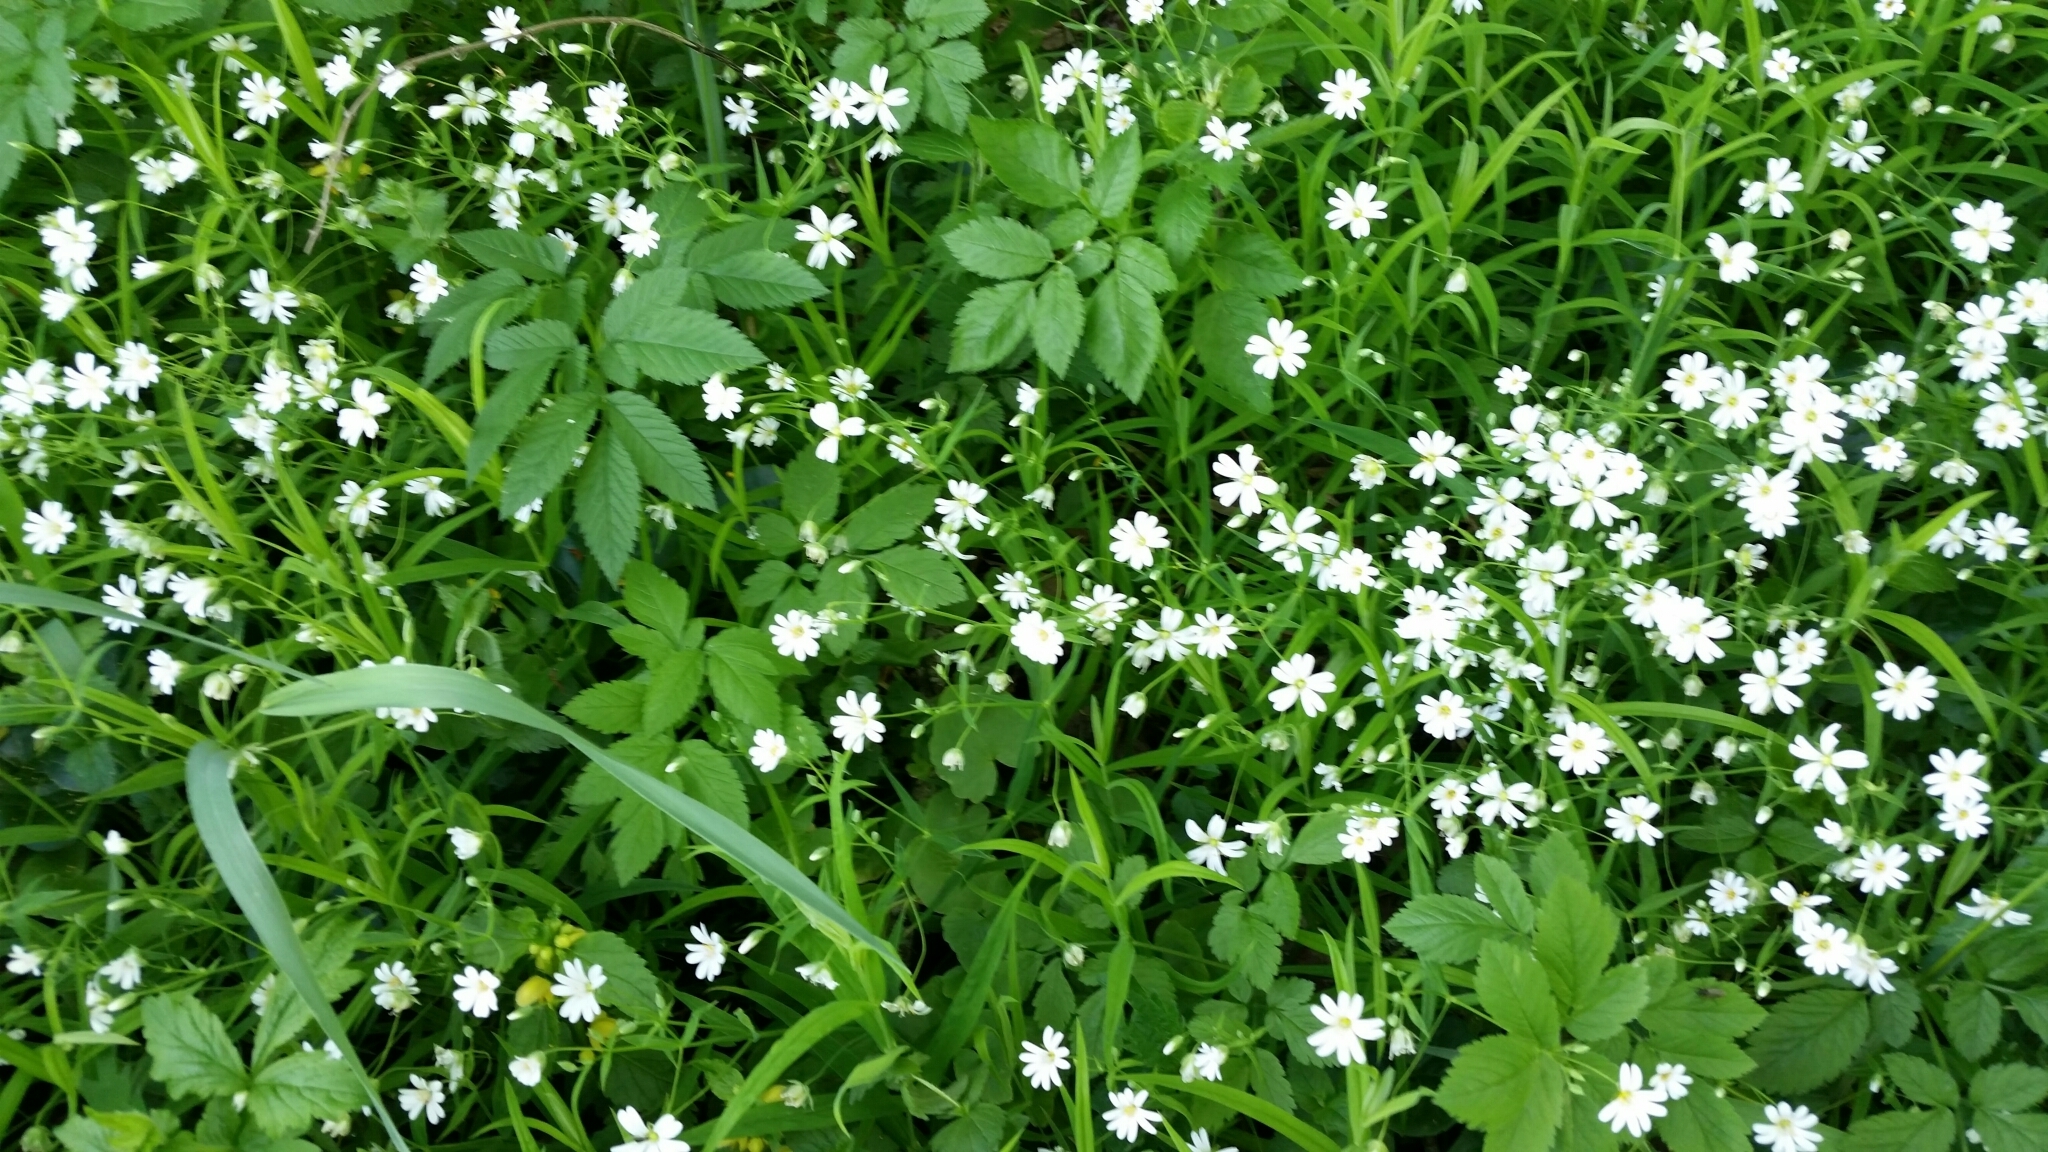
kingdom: Plantae
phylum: Tracheophyta
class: Magnoliopsida
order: Caryophyllales
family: Caryophyllaceae
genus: Rabelera
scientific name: Rabelera holostea
